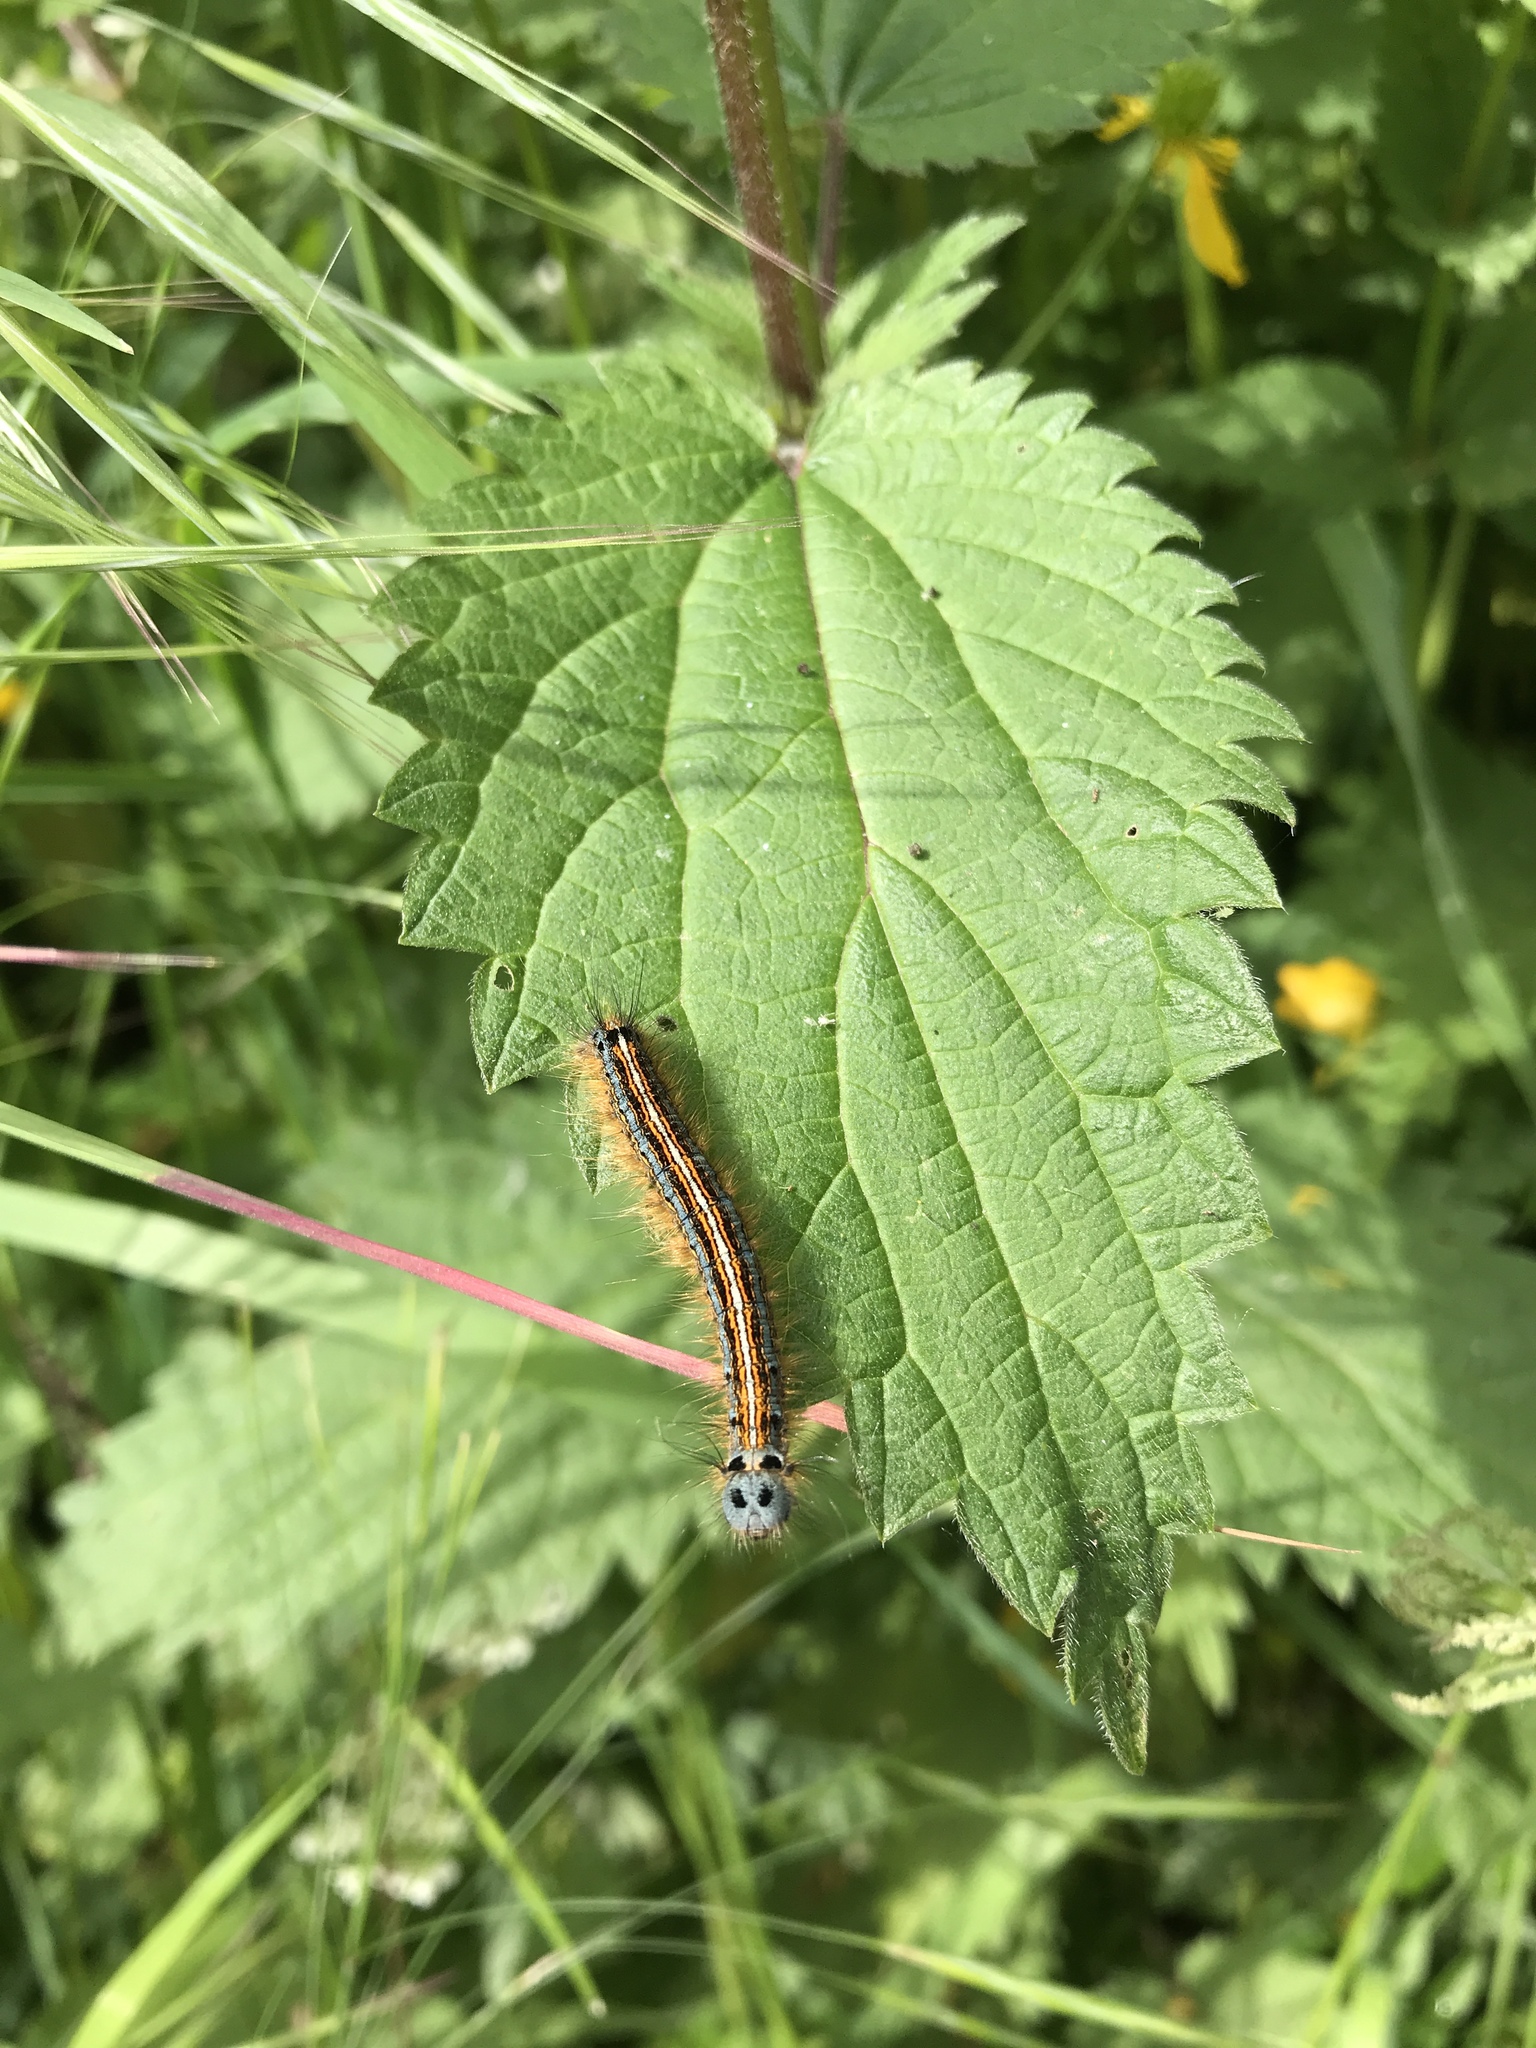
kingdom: Animalia
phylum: Arthropoda
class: Insecta
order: Lepidoptera
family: Lasiocampidae
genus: Malacosoma
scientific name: Malacosoma neustria
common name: The lackey
